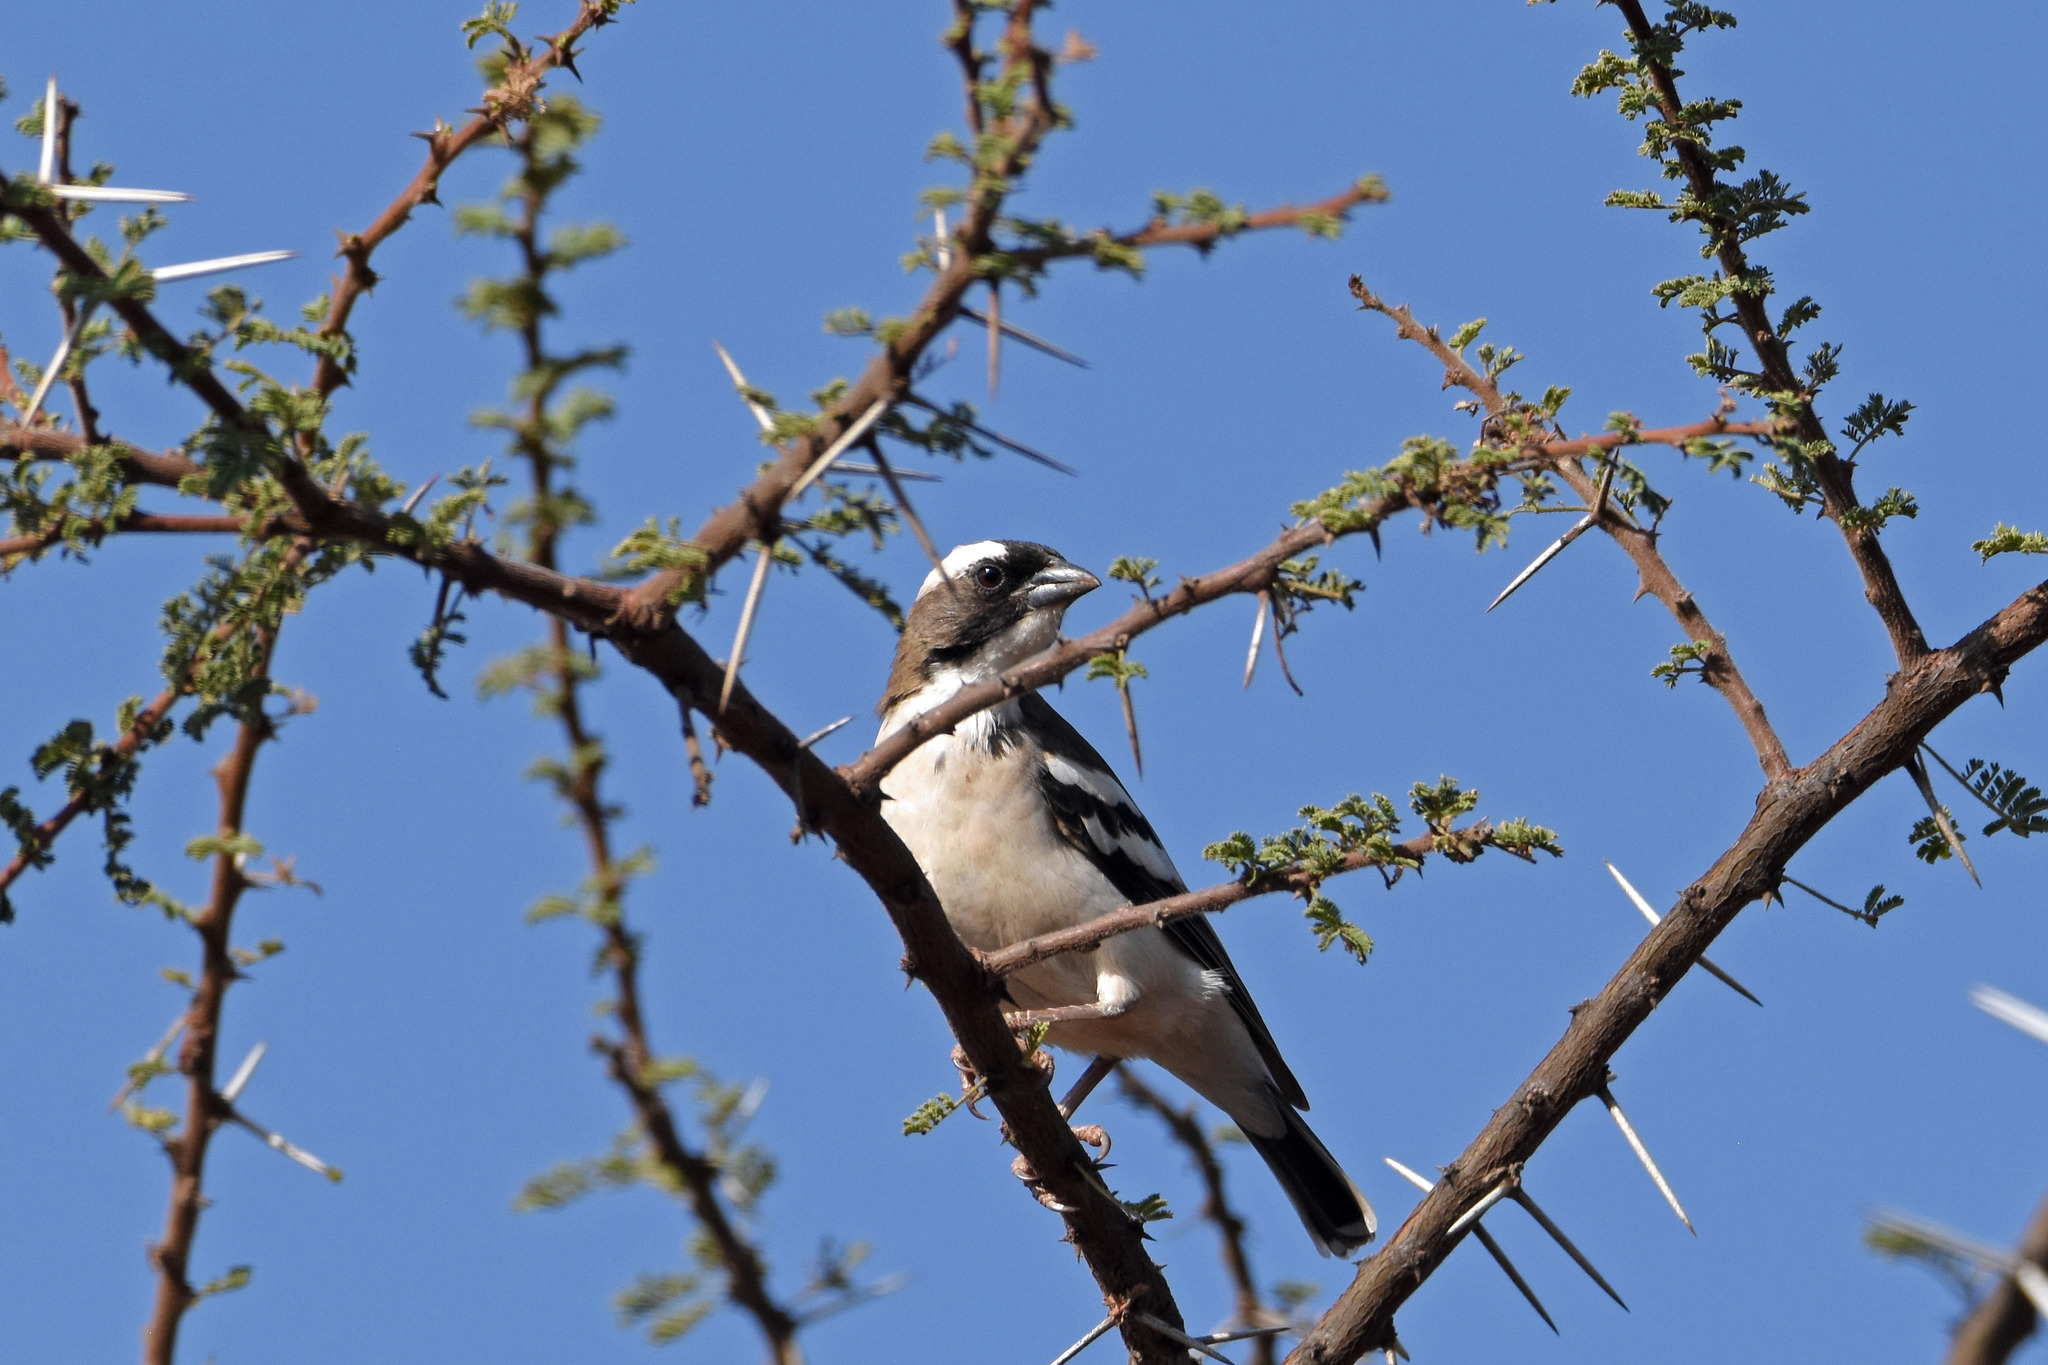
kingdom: Animalia
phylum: Chordata
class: Aves
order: Passeriformes
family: Passeridae
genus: Plocepasser
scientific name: Plocepasser mahali
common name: White-browed sparrow-weaver
